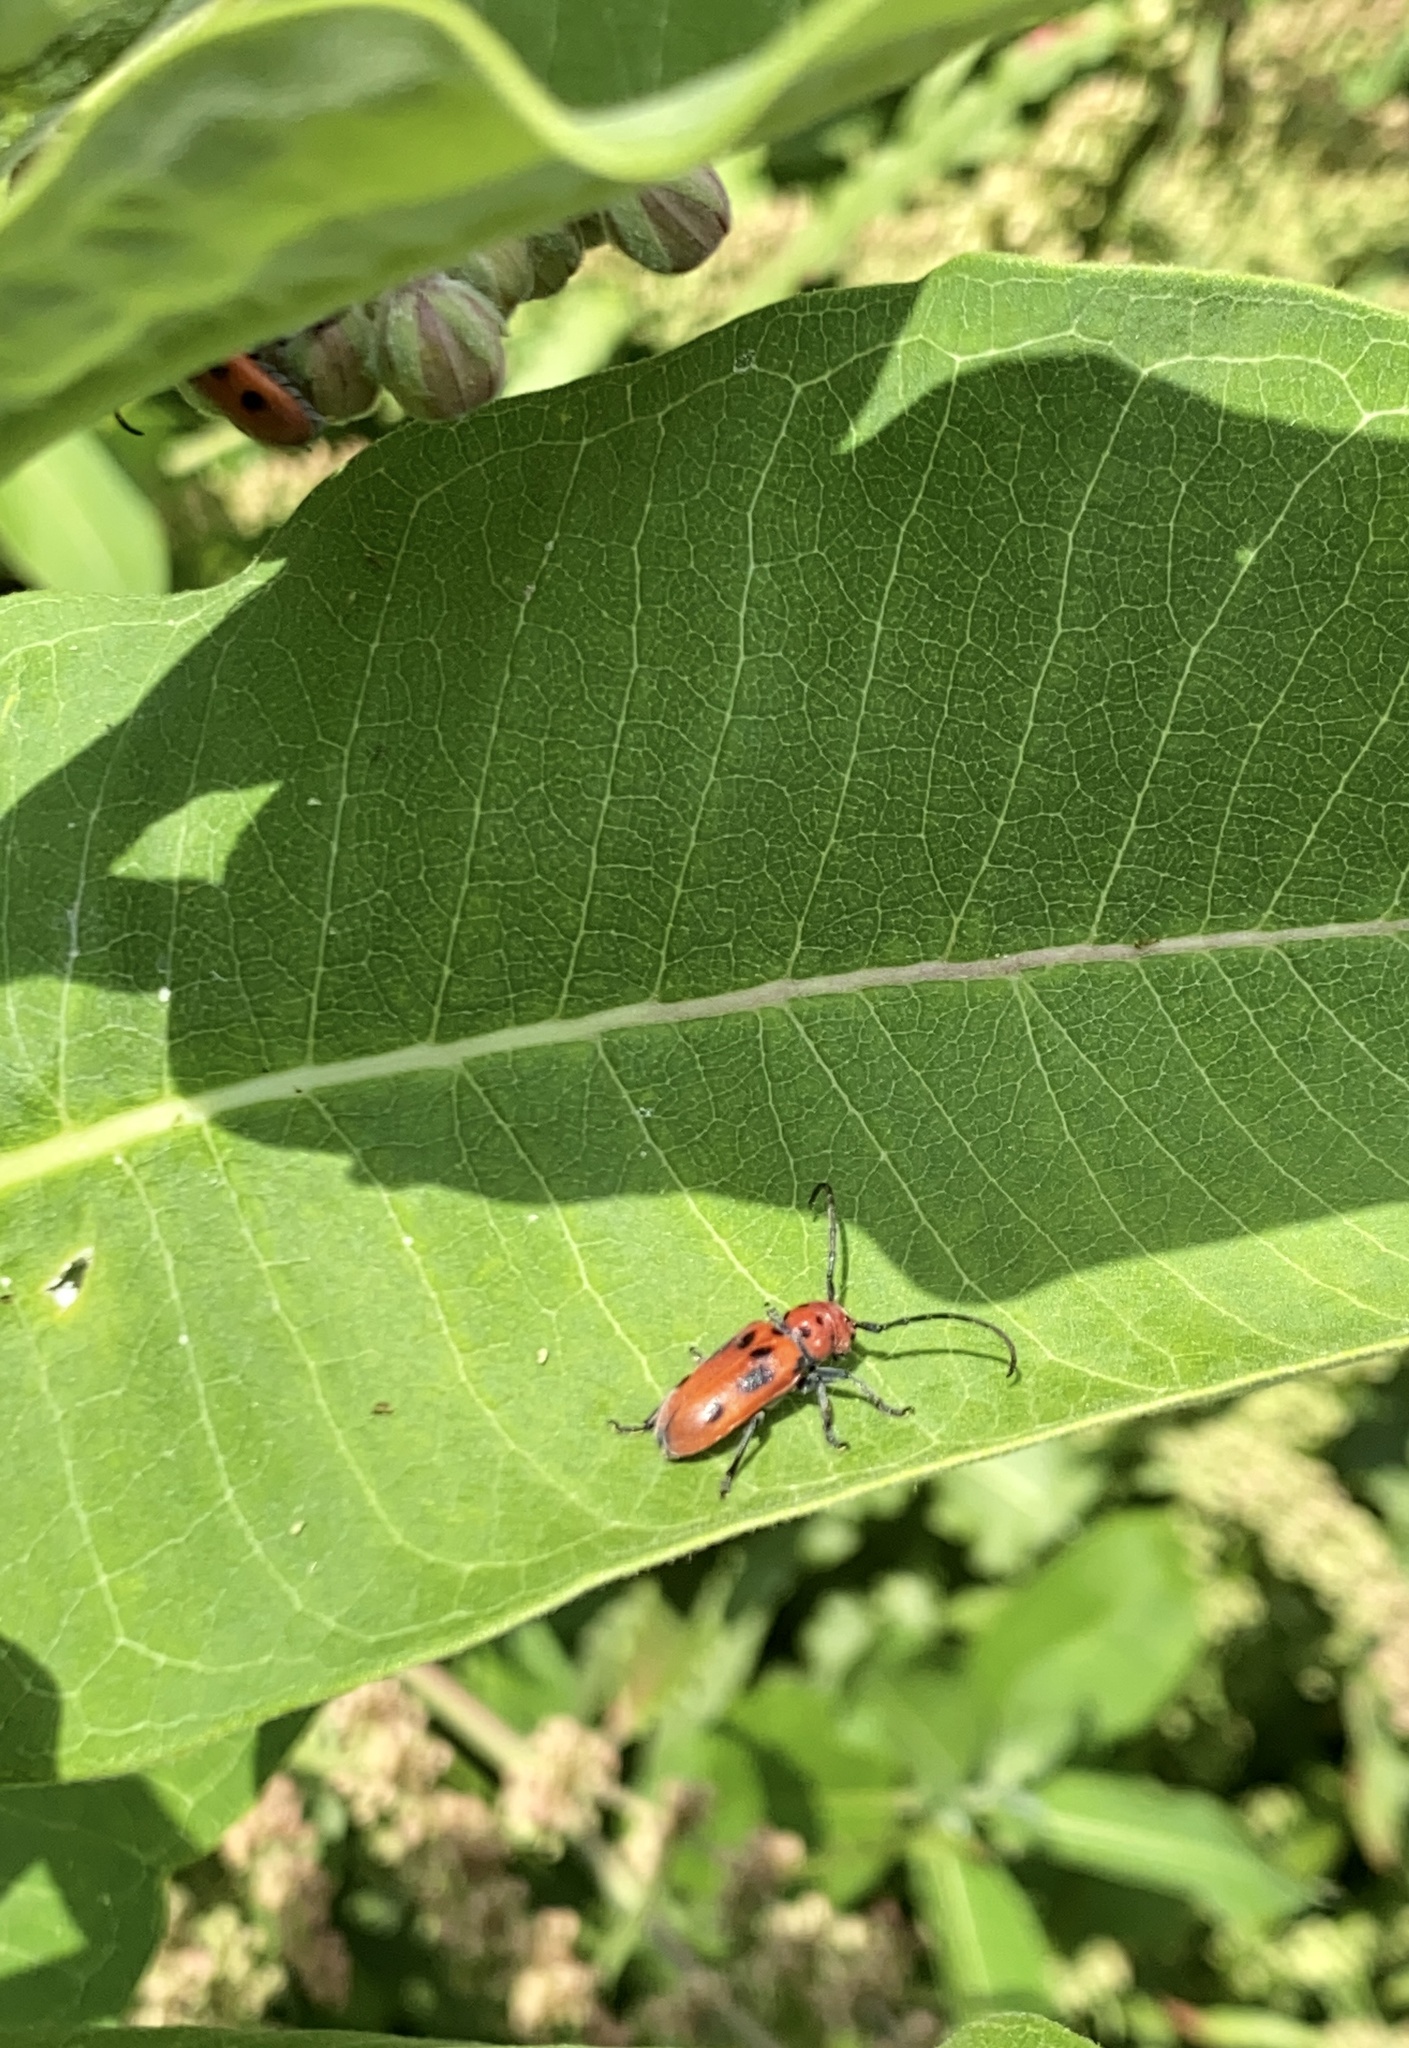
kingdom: Animalia
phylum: Arthropoda
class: Insecta
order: Coleoptera
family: Cerambycidae
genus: Tetraopes
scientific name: Tetraopes tetrophthalmus
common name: Red milkweed beetle
